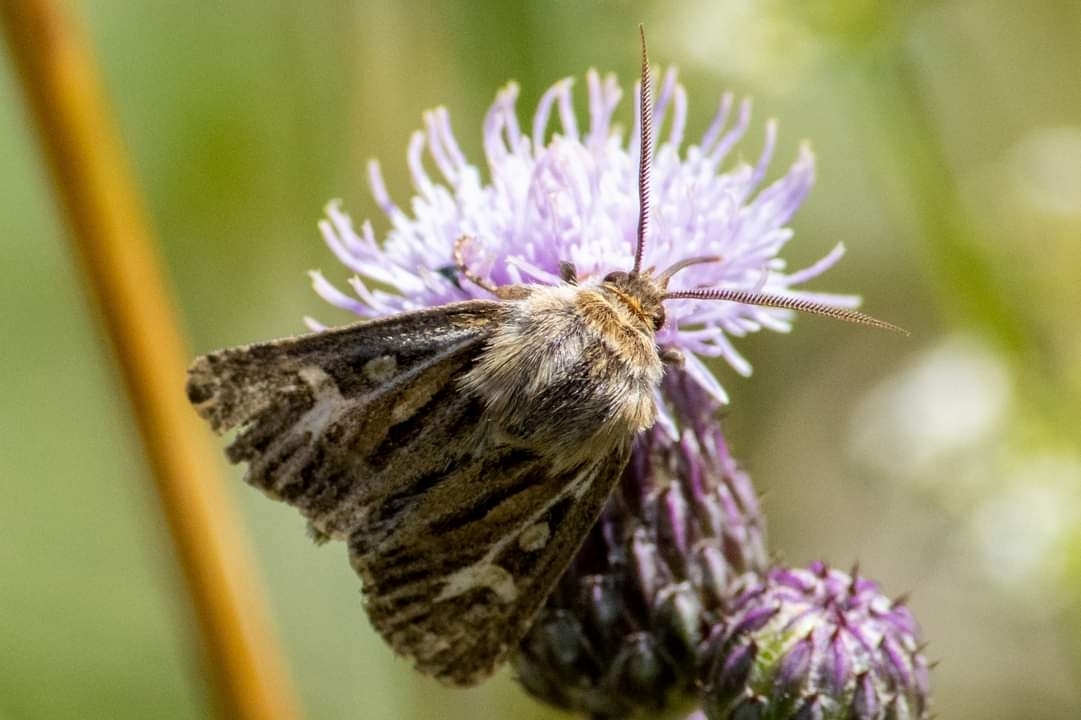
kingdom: Animalia
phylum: Arthropoda
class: Insecta
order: Lepidoptera
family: Noctuidae
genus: Cerapteryx
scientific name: Cerapteryx graminis
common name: Antler moth
